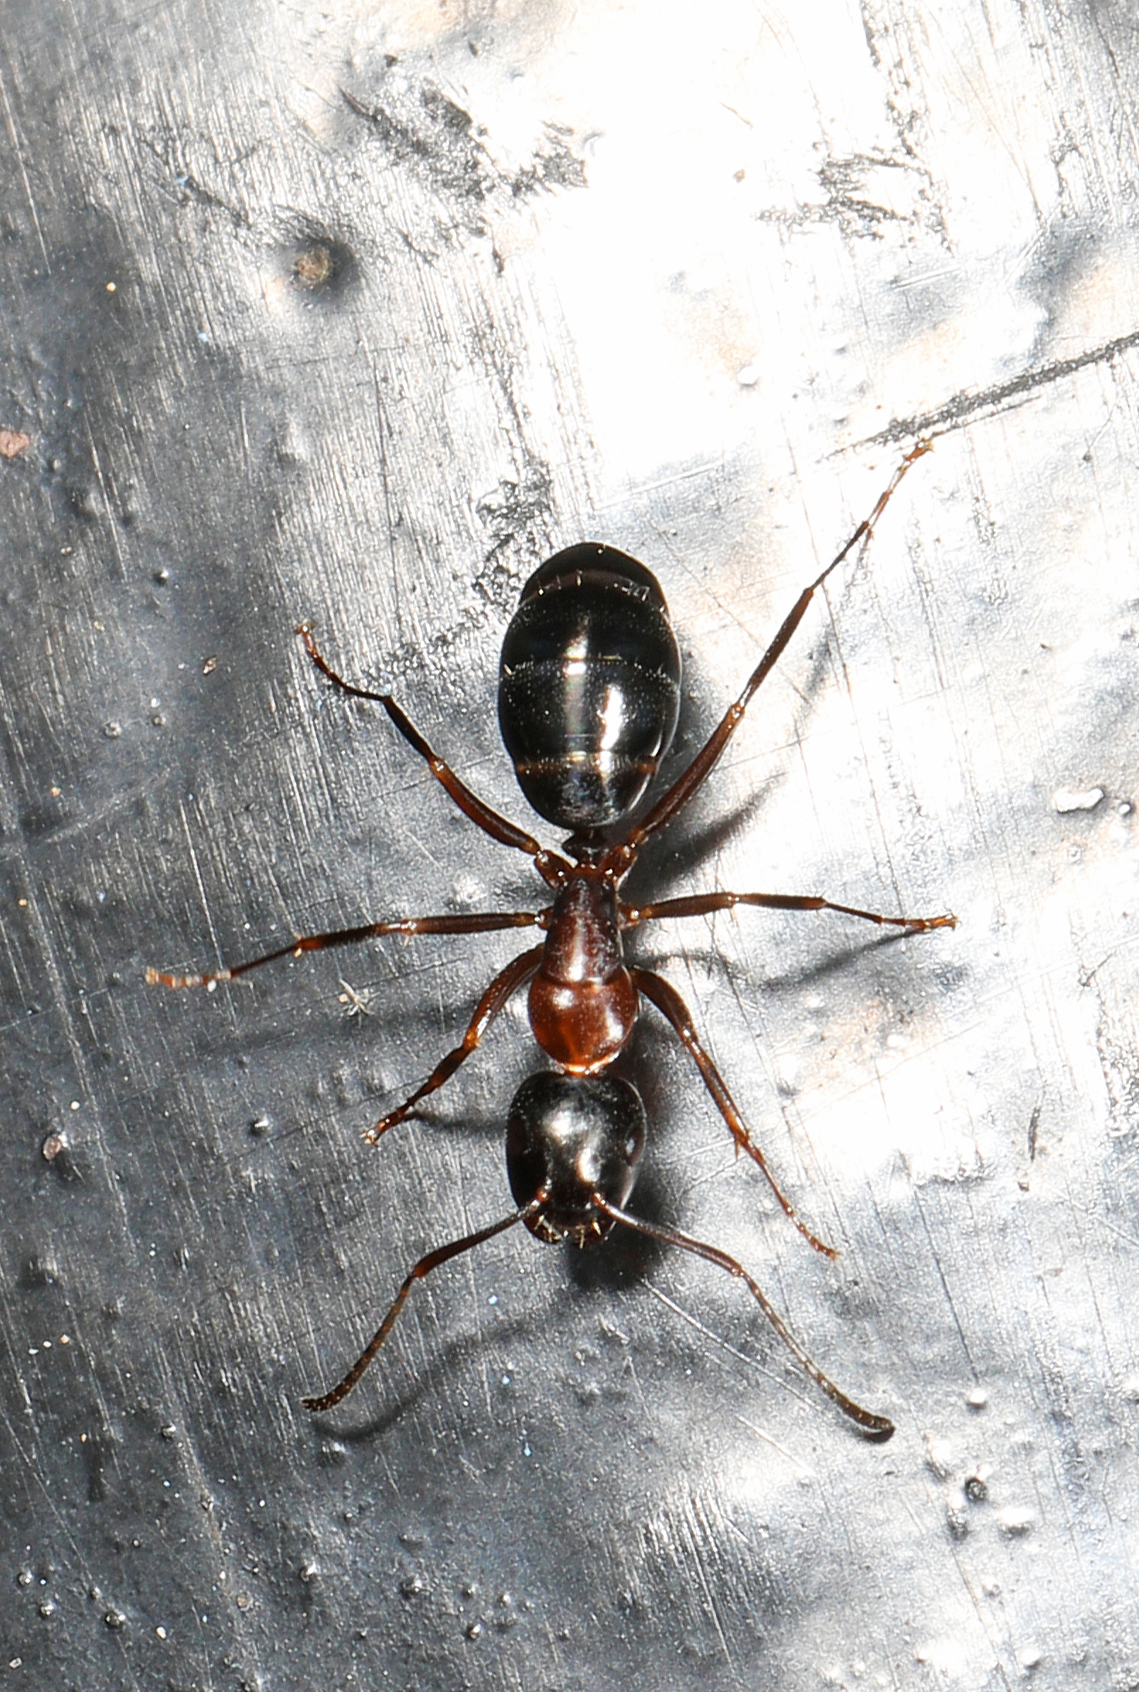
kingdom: Animalia
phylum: Arthropoda
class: Insecta
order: Hymenoptera
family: Formicidae
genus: Camponotus
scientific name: Camponotus nearcticus
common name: Smaller carpenter ant
